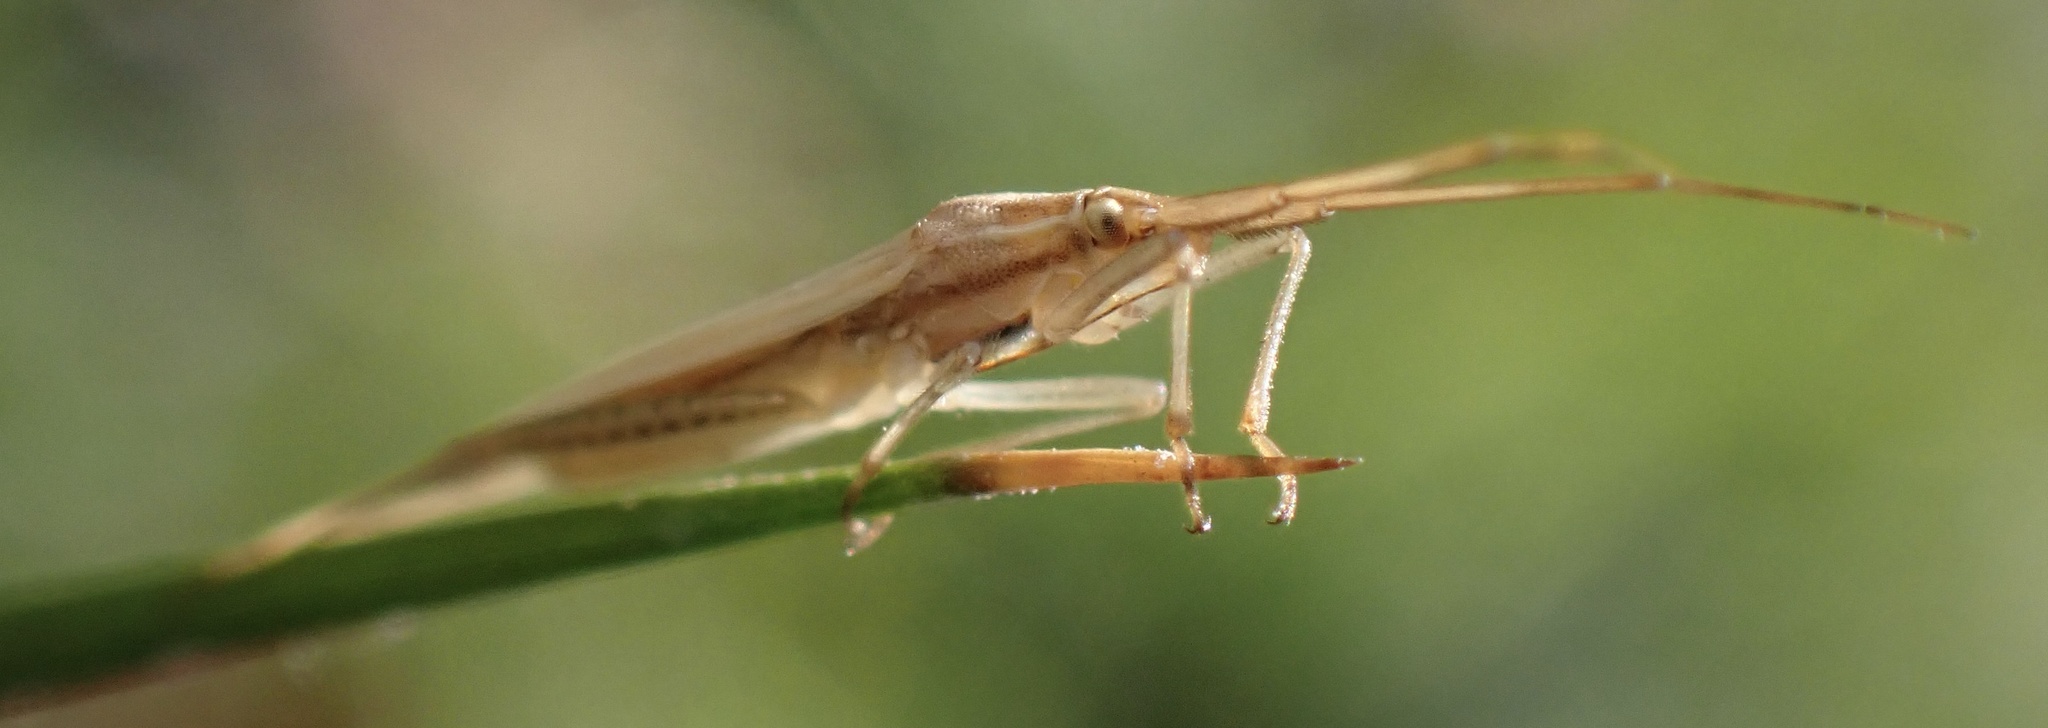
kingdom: Animalia
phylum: Arthropoda
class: Insecta
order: Hemiptera
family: Miridae
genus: Stenodema
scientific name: Stenodema calcarata
